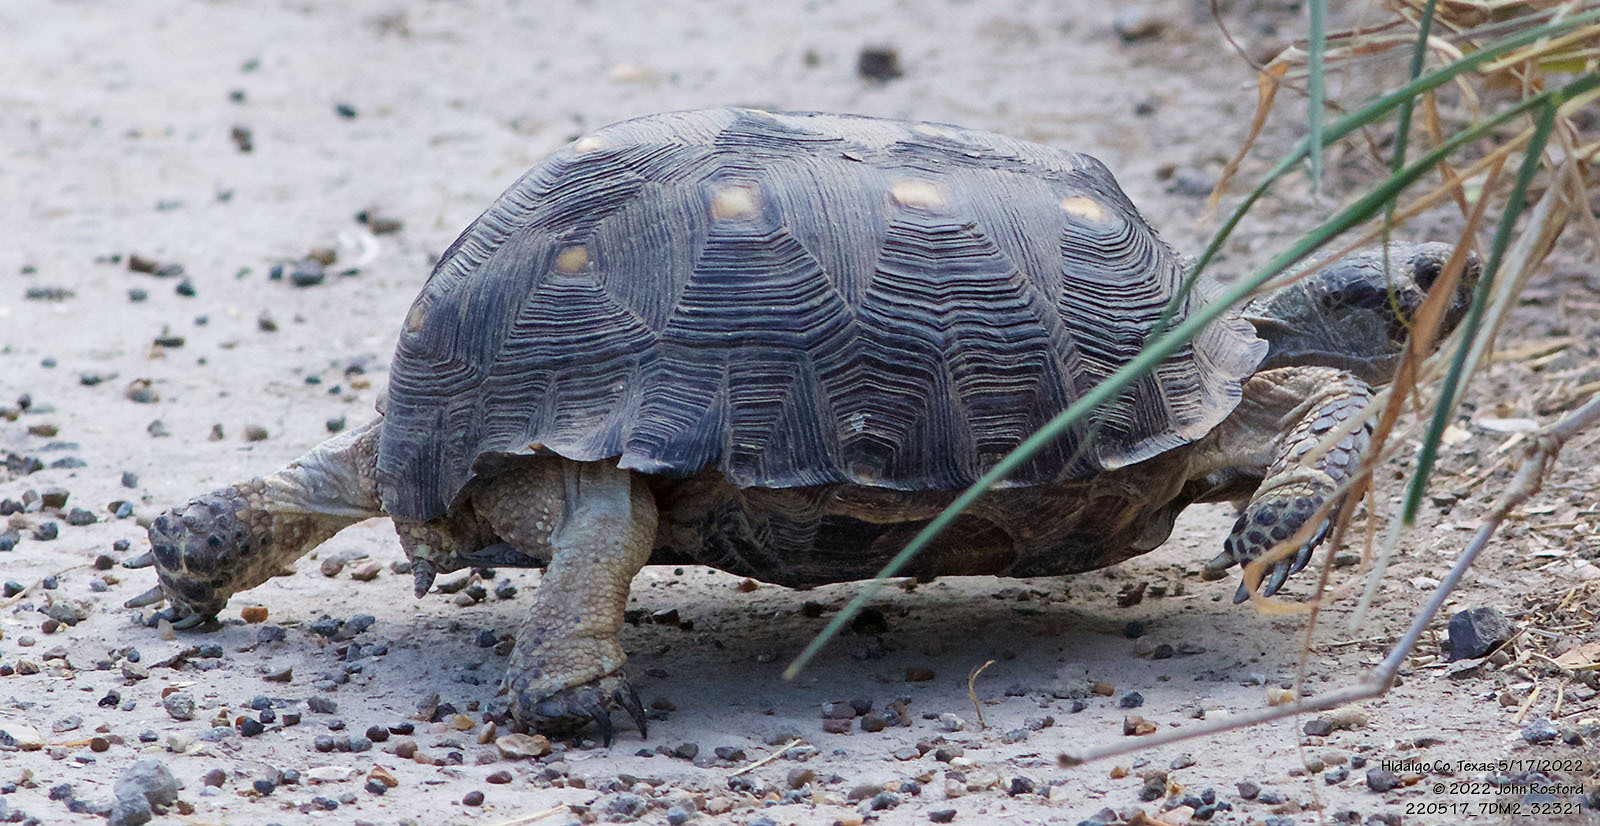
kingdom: Animalia
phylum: Chordata
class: Testudines
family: Testudinidae
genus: Gopherus
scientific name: Gopherus berlandieri
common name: Texas (gopher )tortoise
